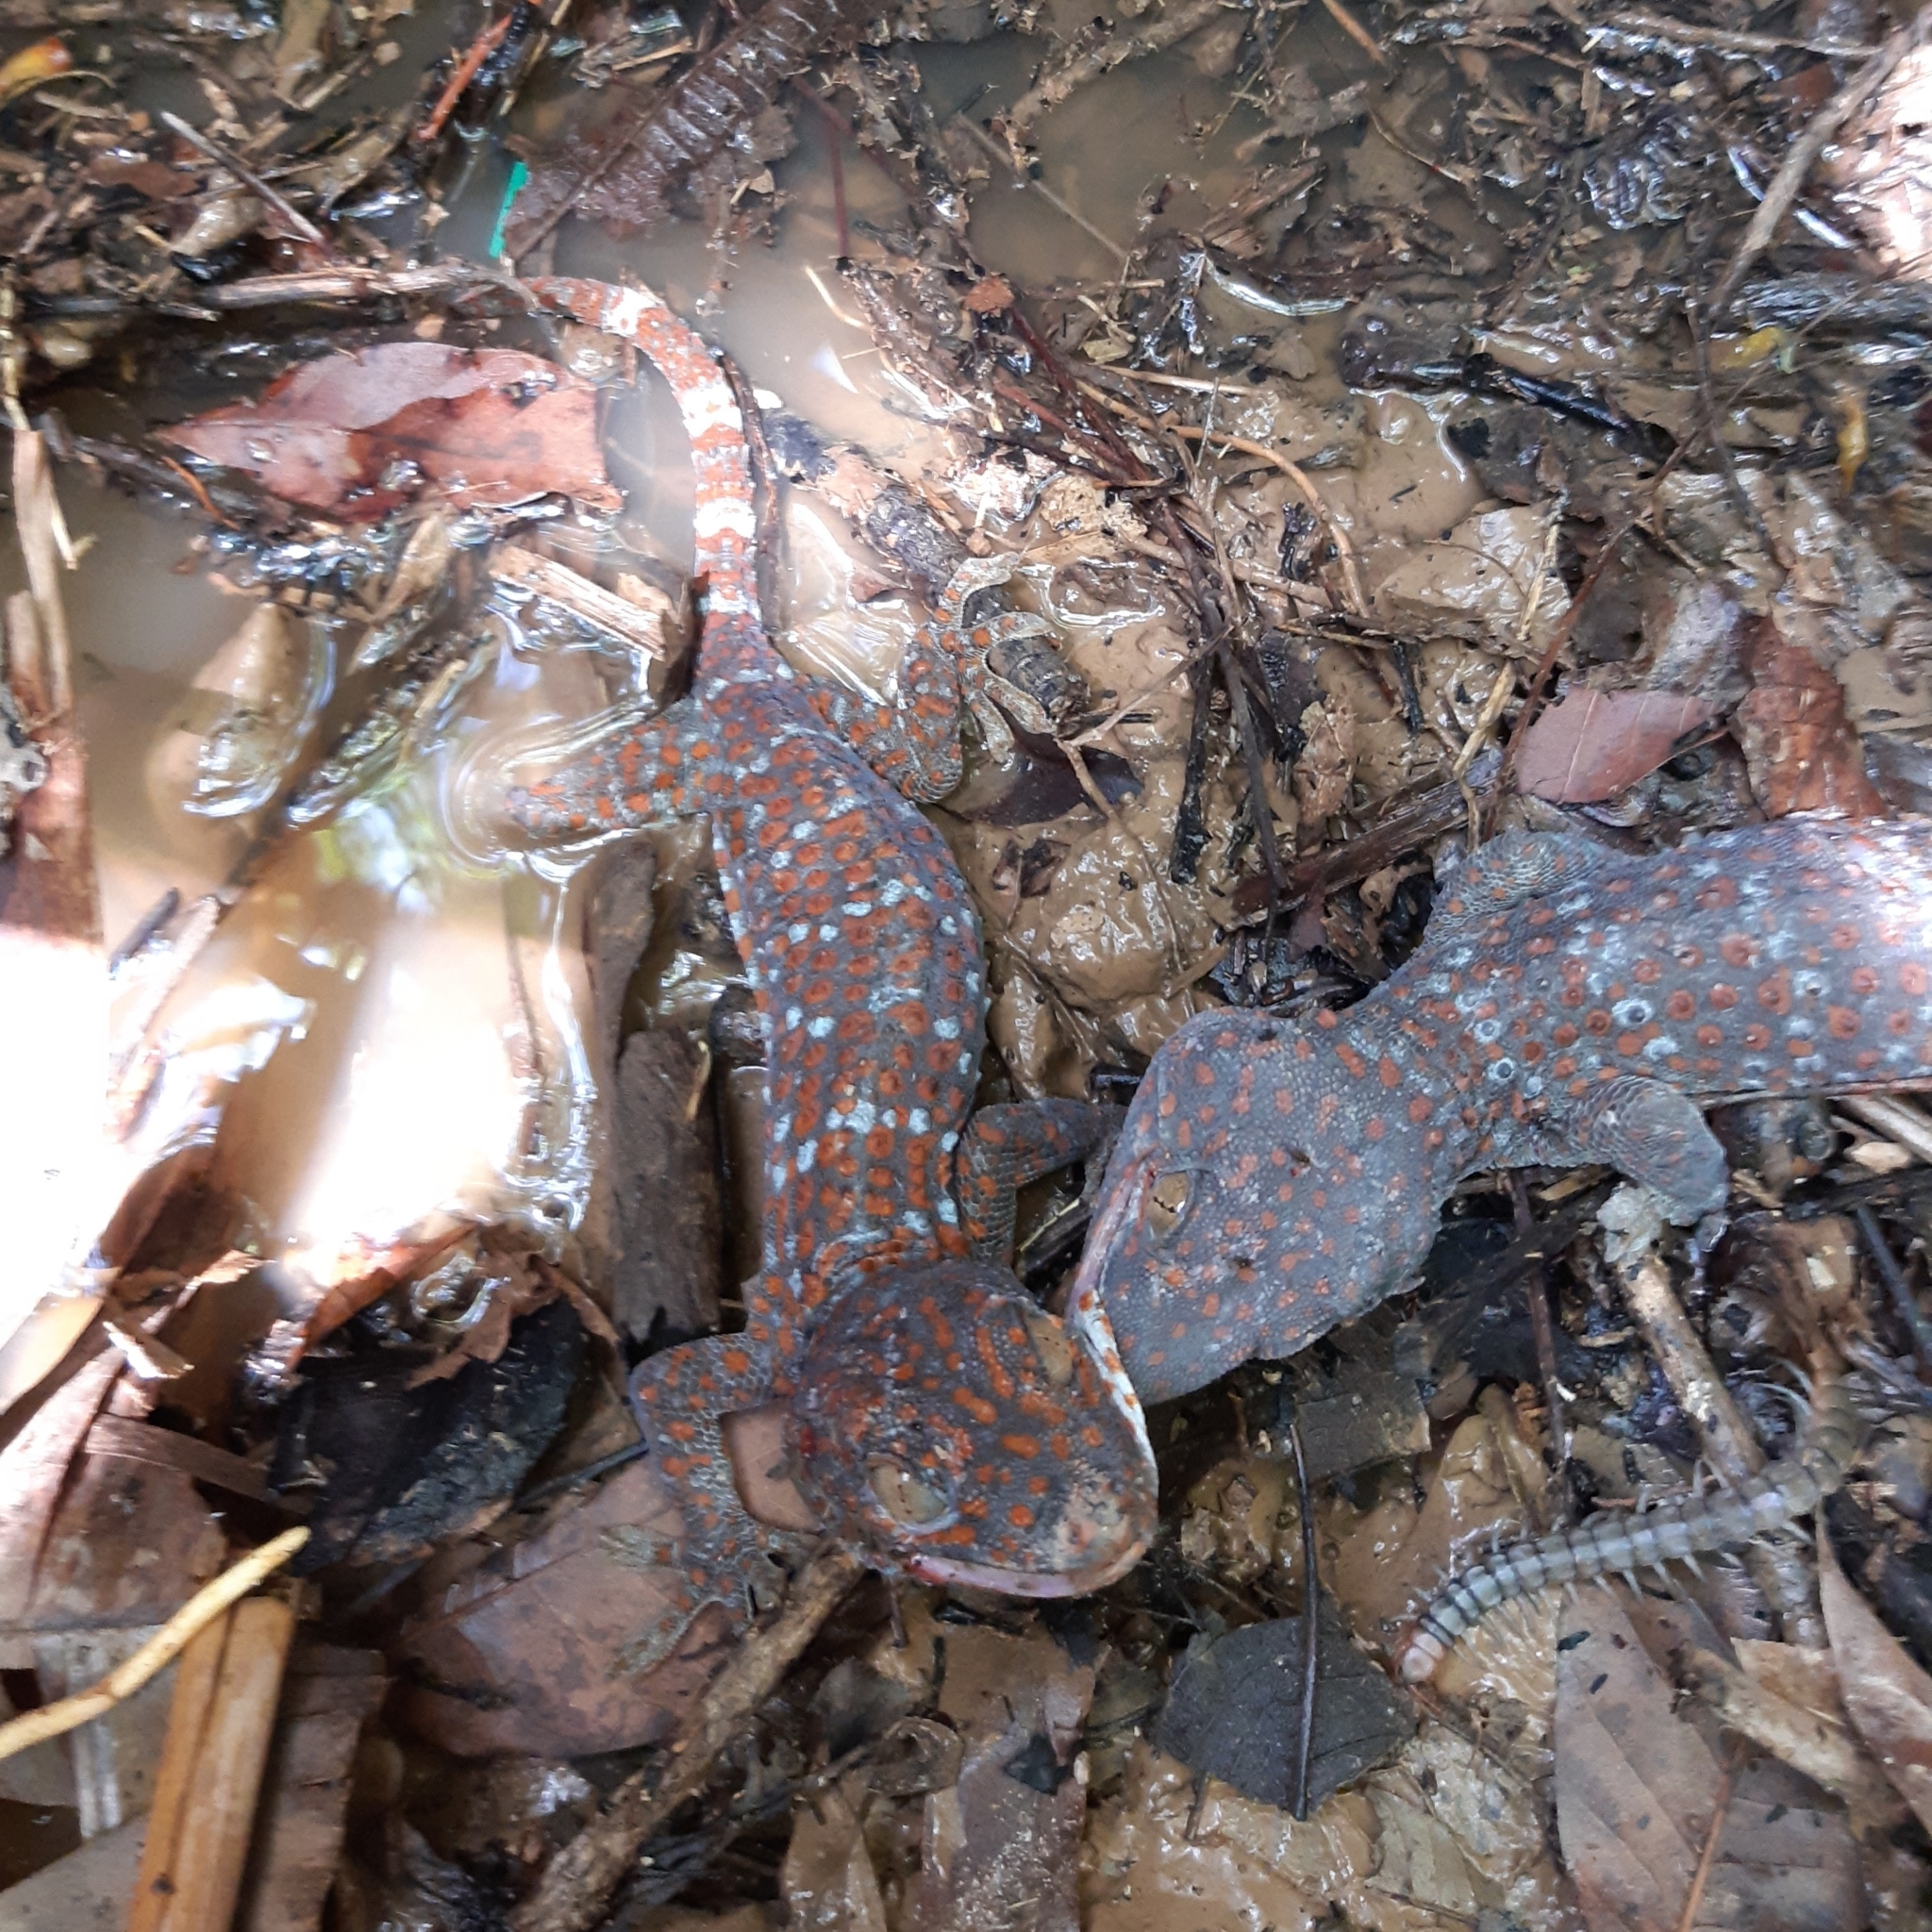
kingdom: Animalia
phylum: Chordata
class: Squamata
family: Gekkonidae
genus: Gekko
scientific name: Gekko gecko
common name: Tokay gecko
